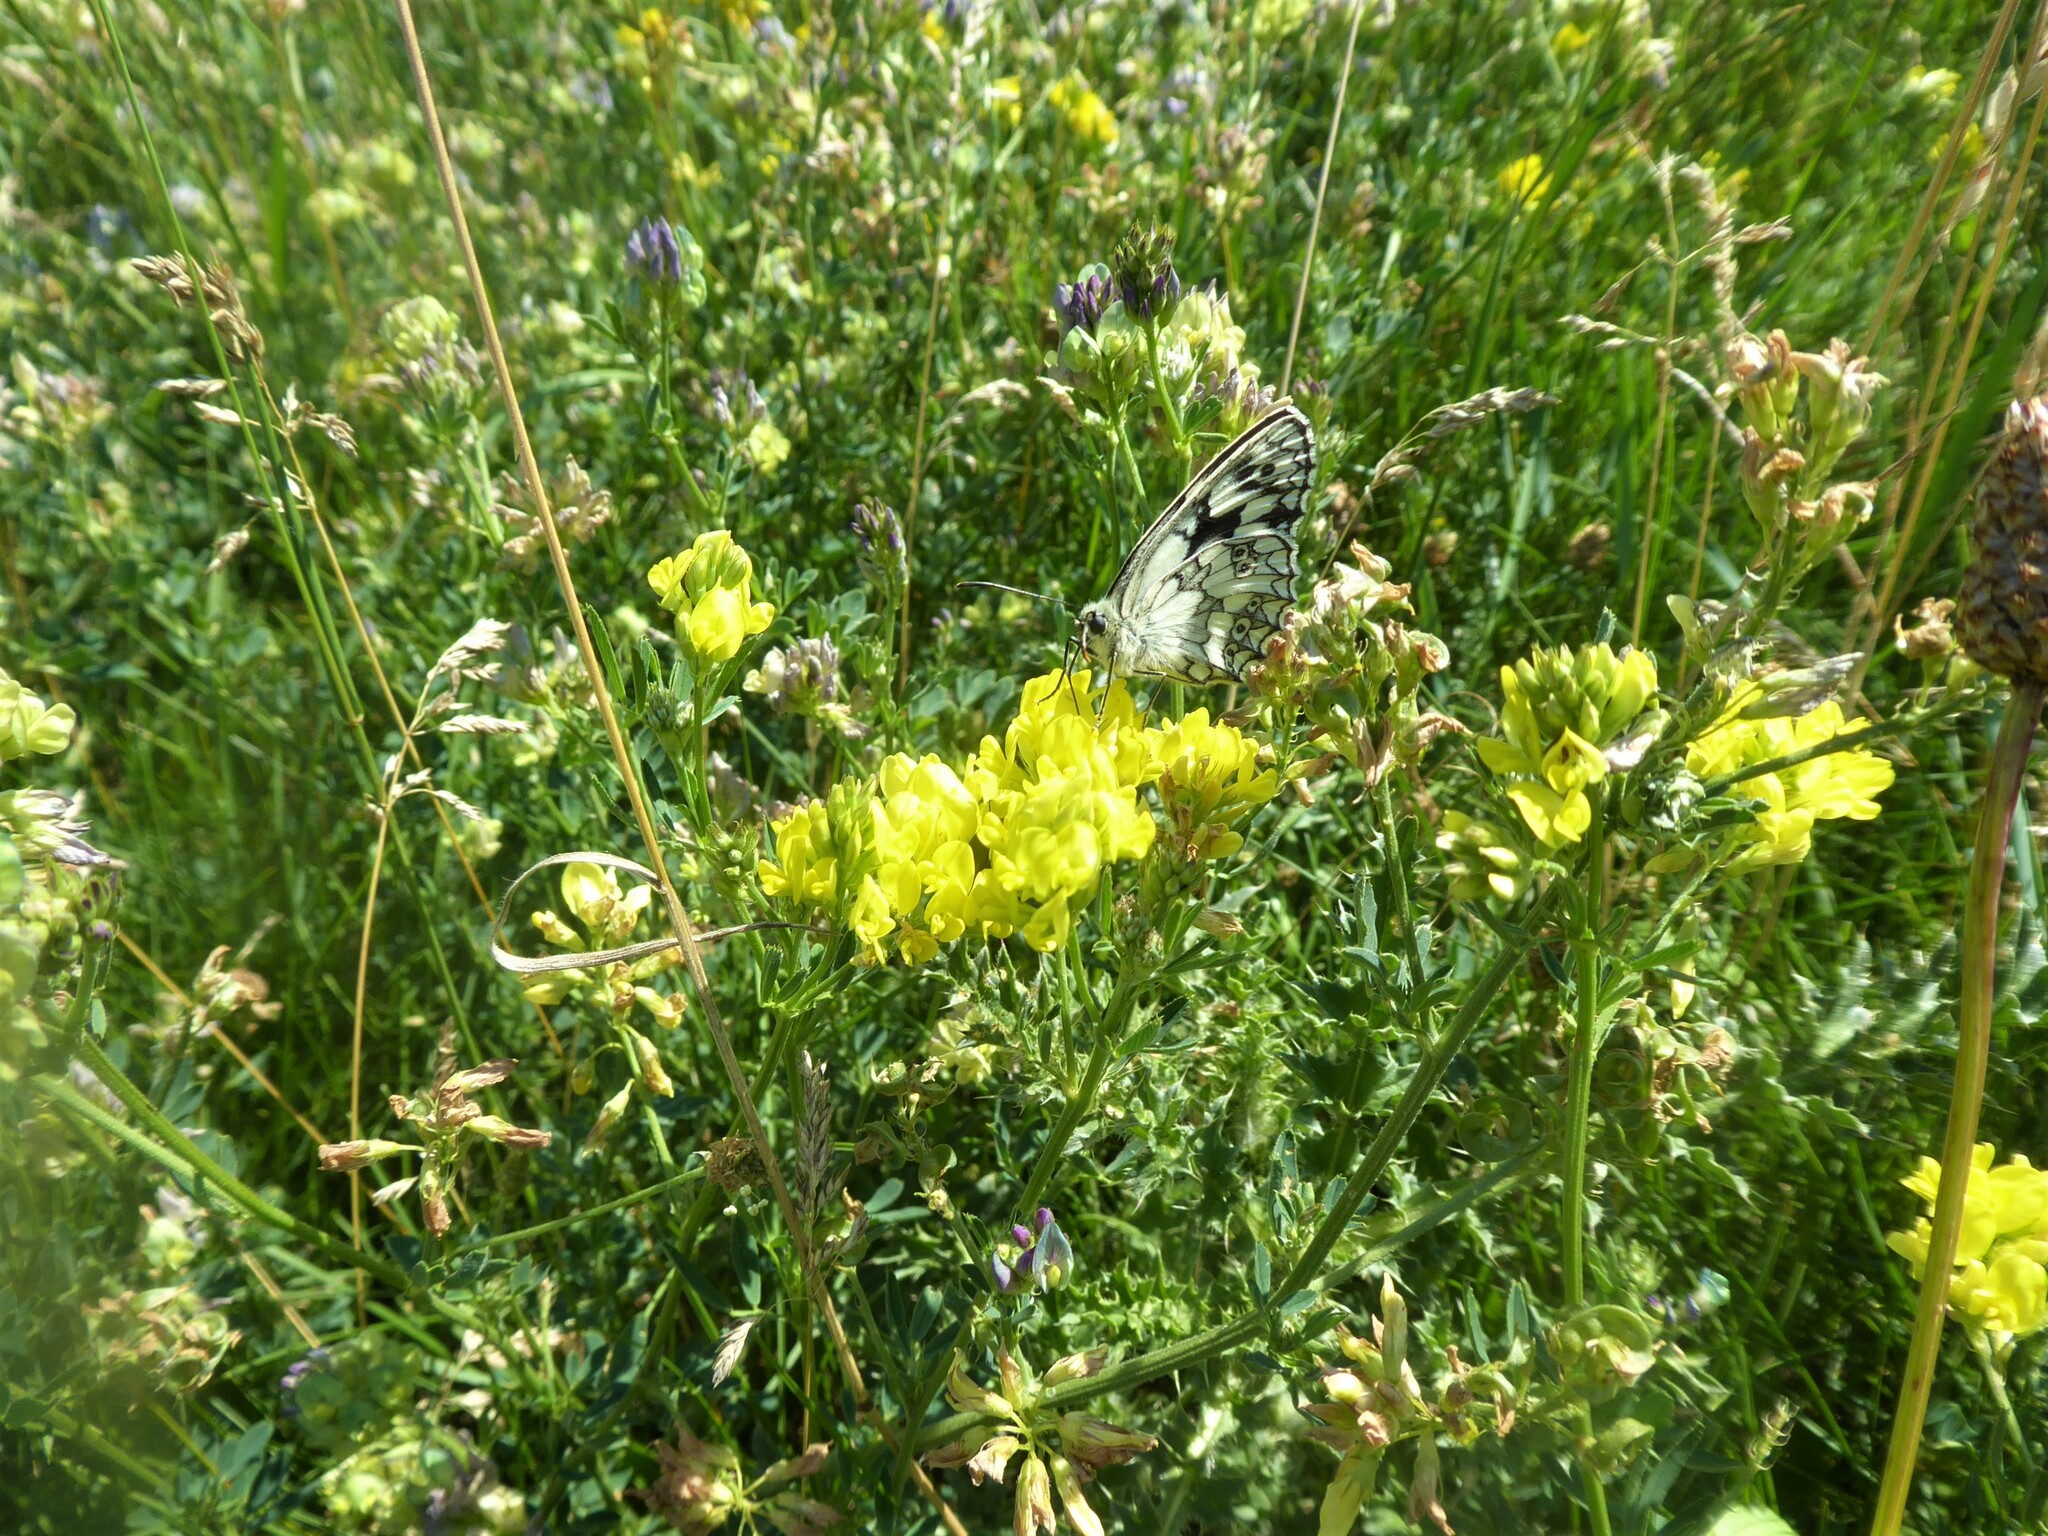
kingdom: Animalia
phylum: Arthropoda
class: Insecta
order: Lepidoptera
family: Nymphalidae
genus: Melanargia
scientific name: Melanargia galathea
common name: Marbled white
